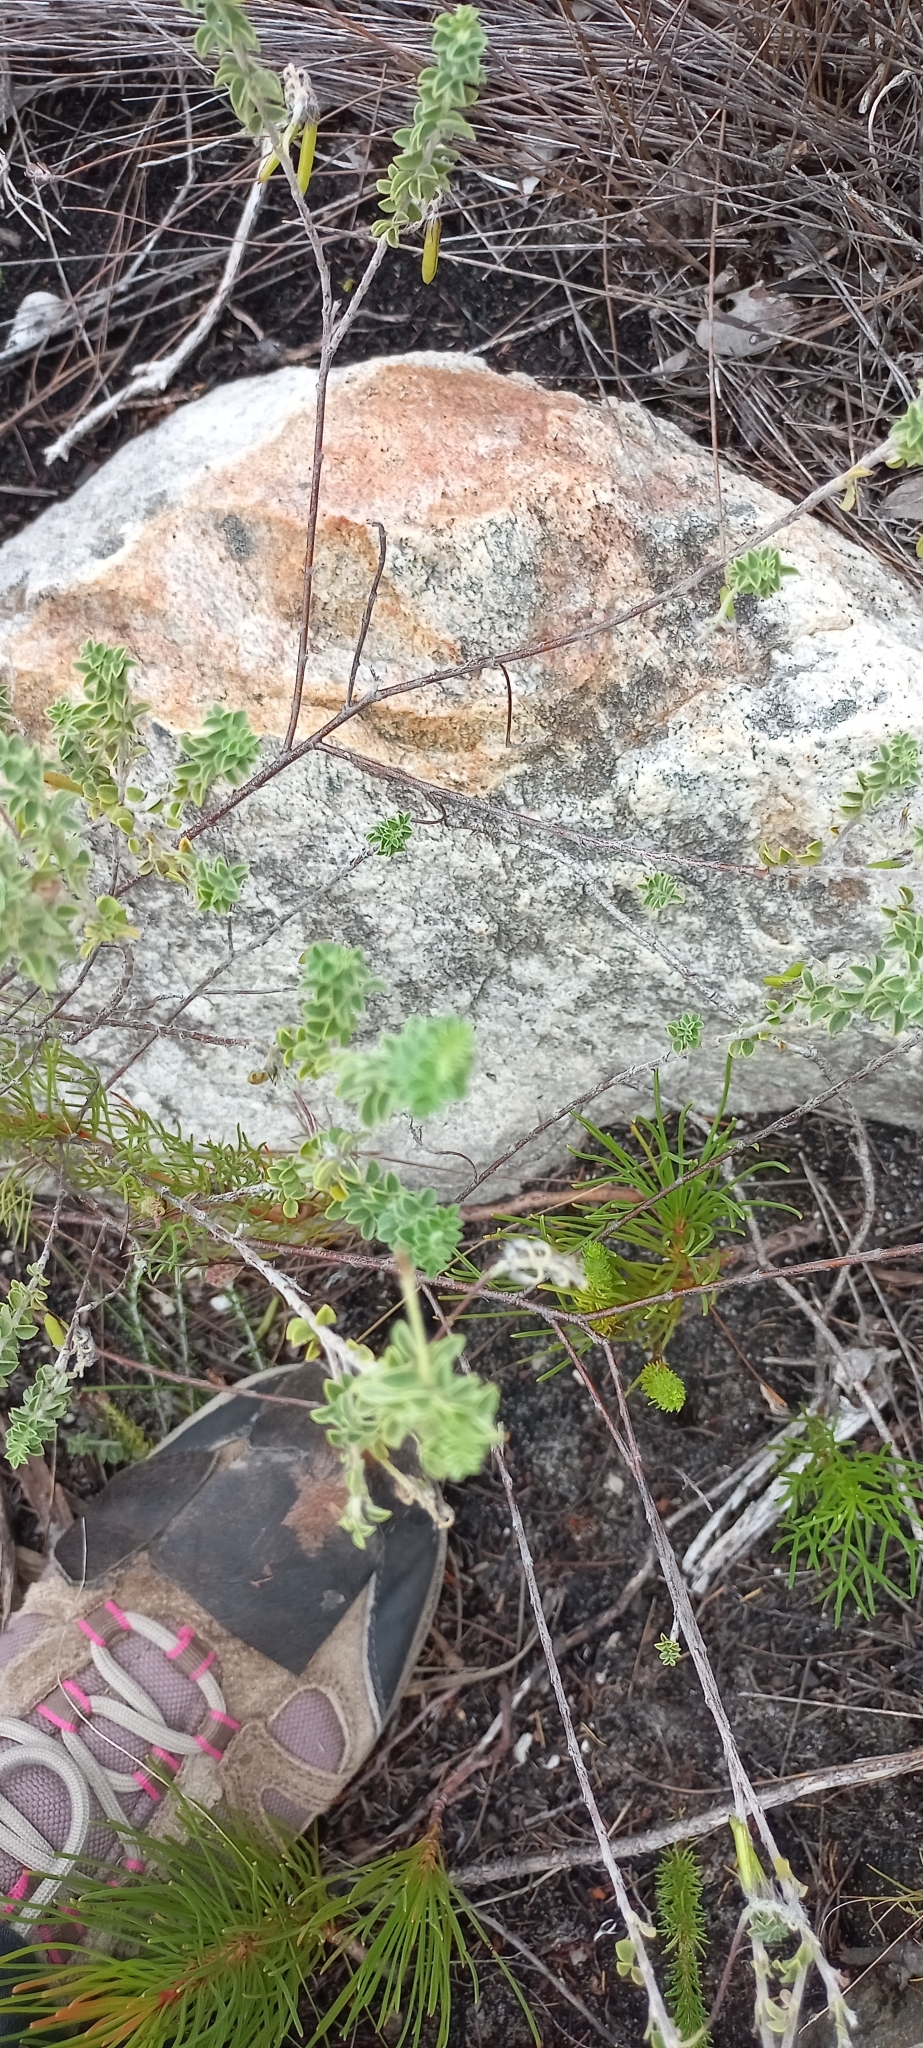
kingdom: Plantae
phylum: Tracheophyta
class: Magnoliopsida
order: Fabales
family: Fabaceae
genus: Indigofera
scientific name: Indigofera alopecuroides
